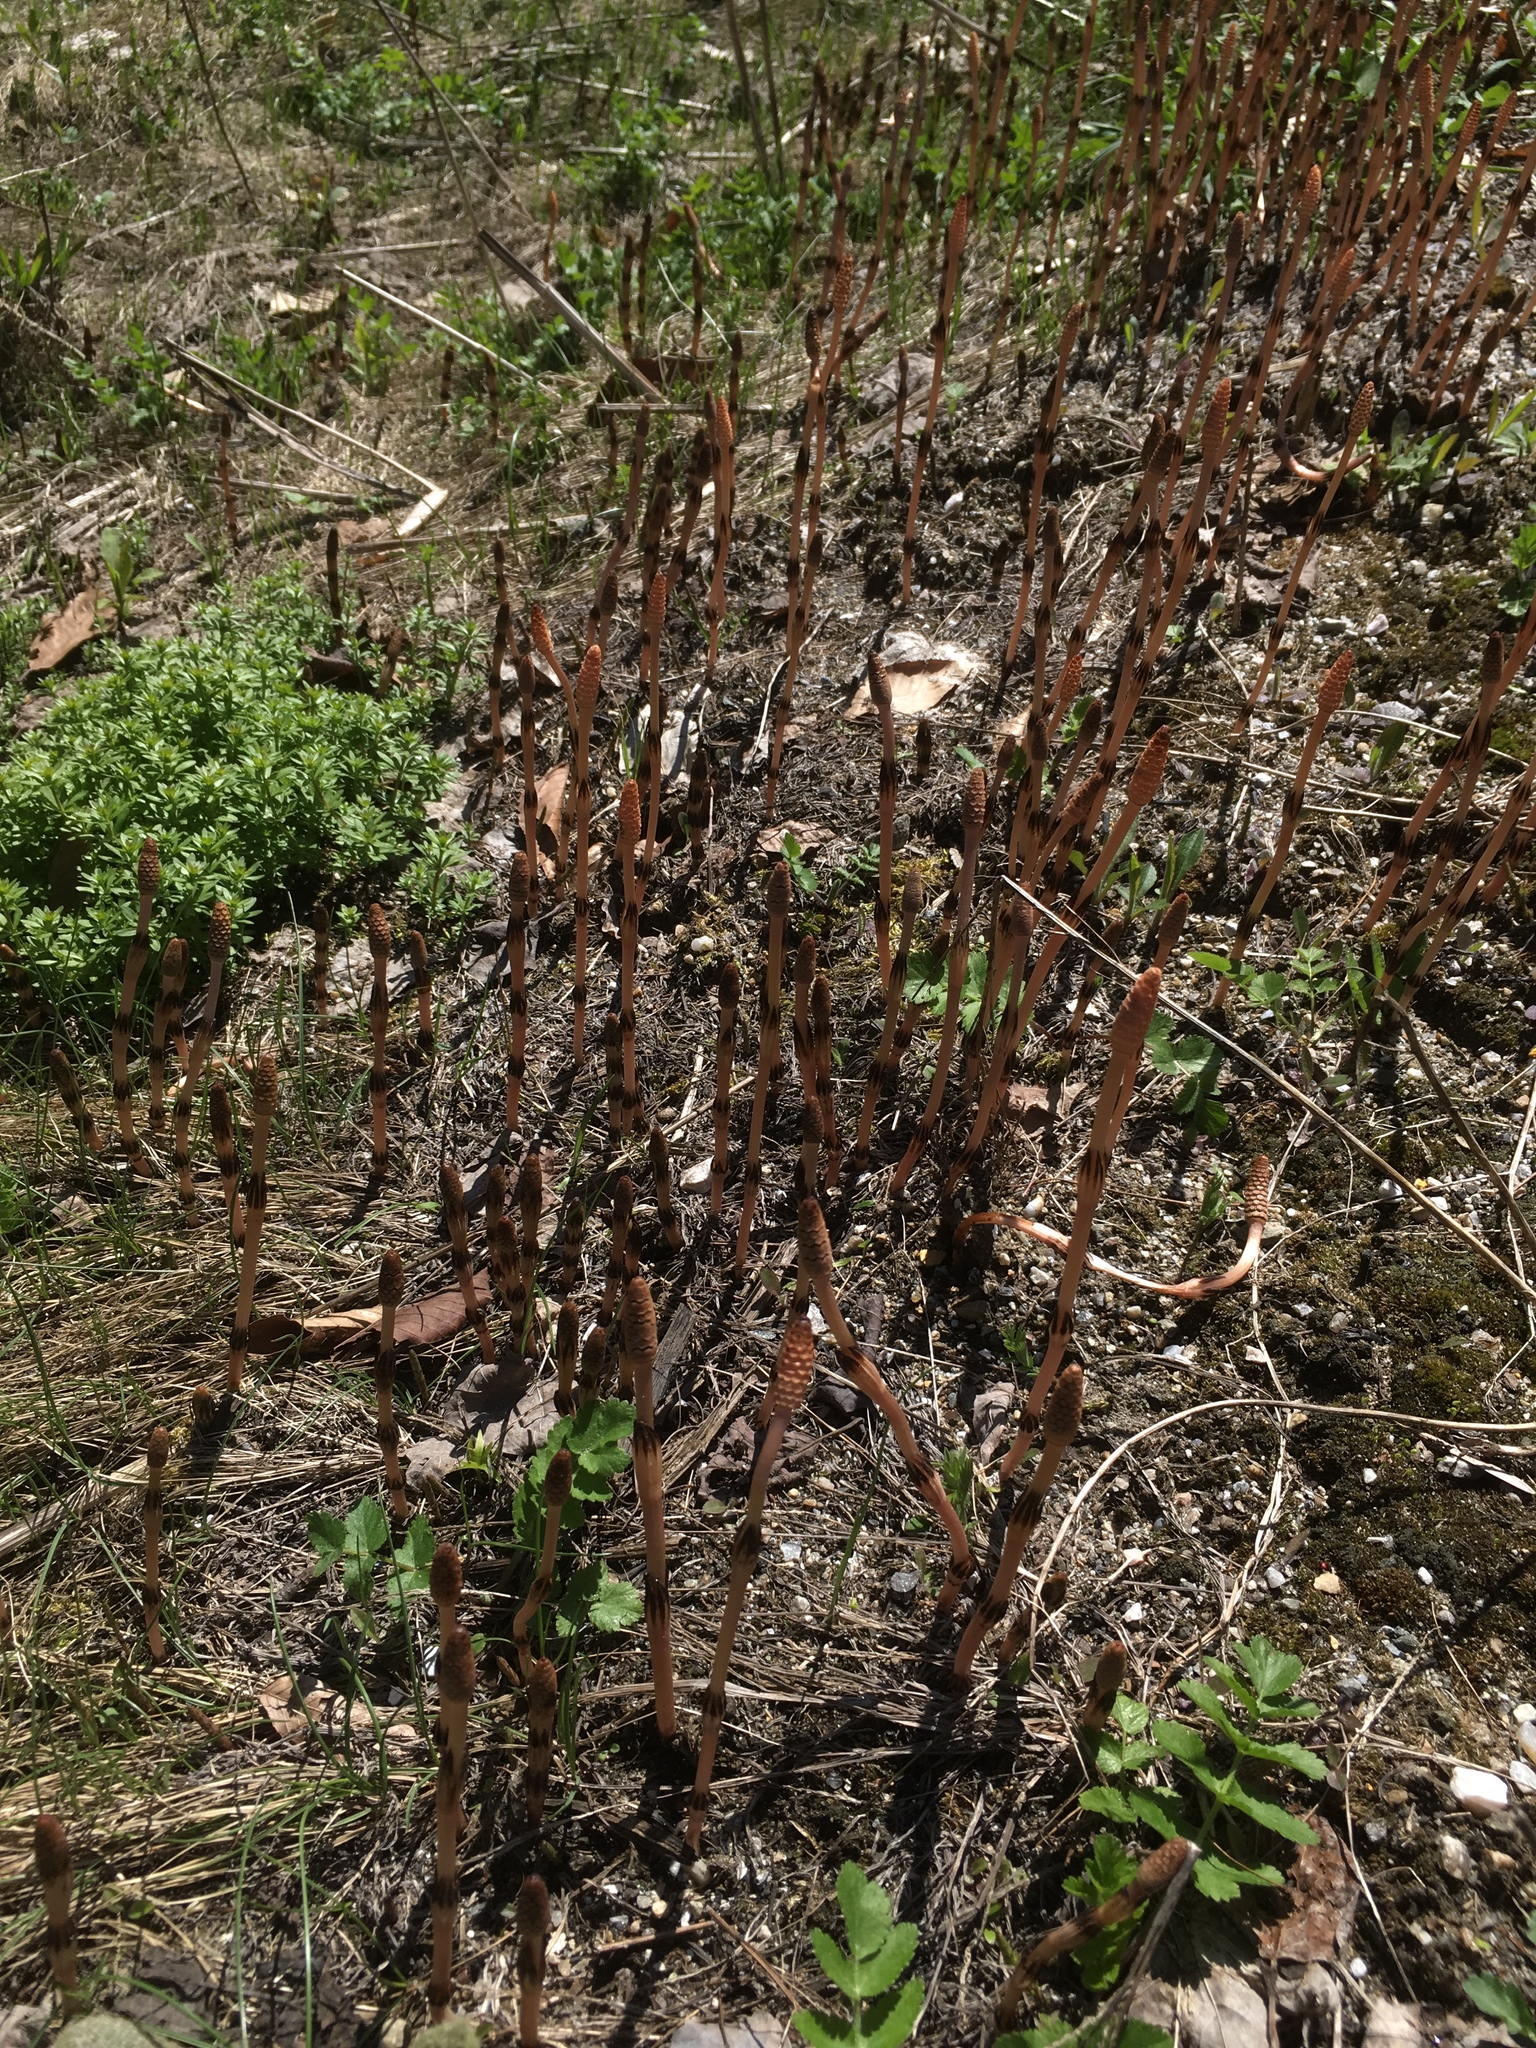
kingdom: Plantae
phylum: Tracheophyta
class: Polypodiopsida
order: Equisetales
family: Equisetaceae
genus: Equisetum
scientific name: Equisetum arvense
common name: Field horsetail
